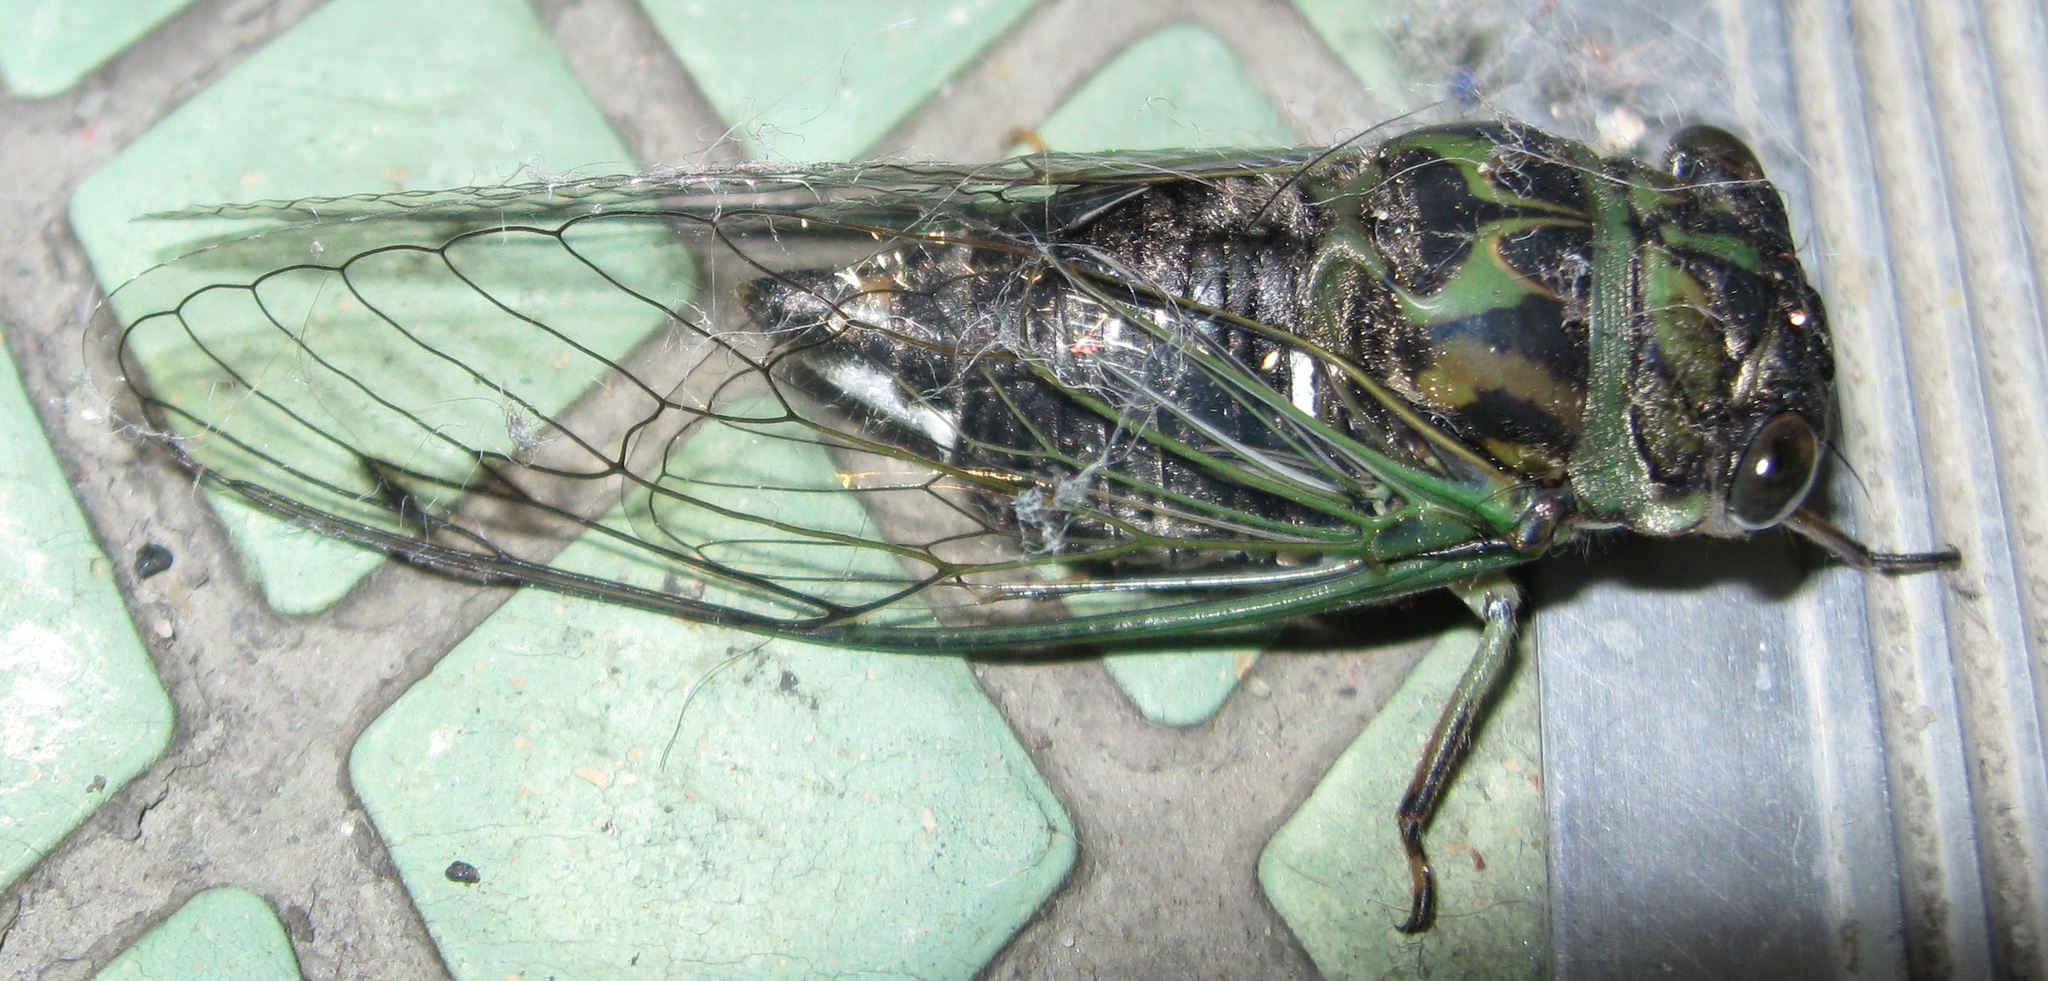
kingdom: Animalia
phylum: Arthropoda
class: Insecta
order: Hemiptera
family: Cicadidae
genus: Neotibicen
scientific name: Neotibicen canicularis
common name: God-day cicada
